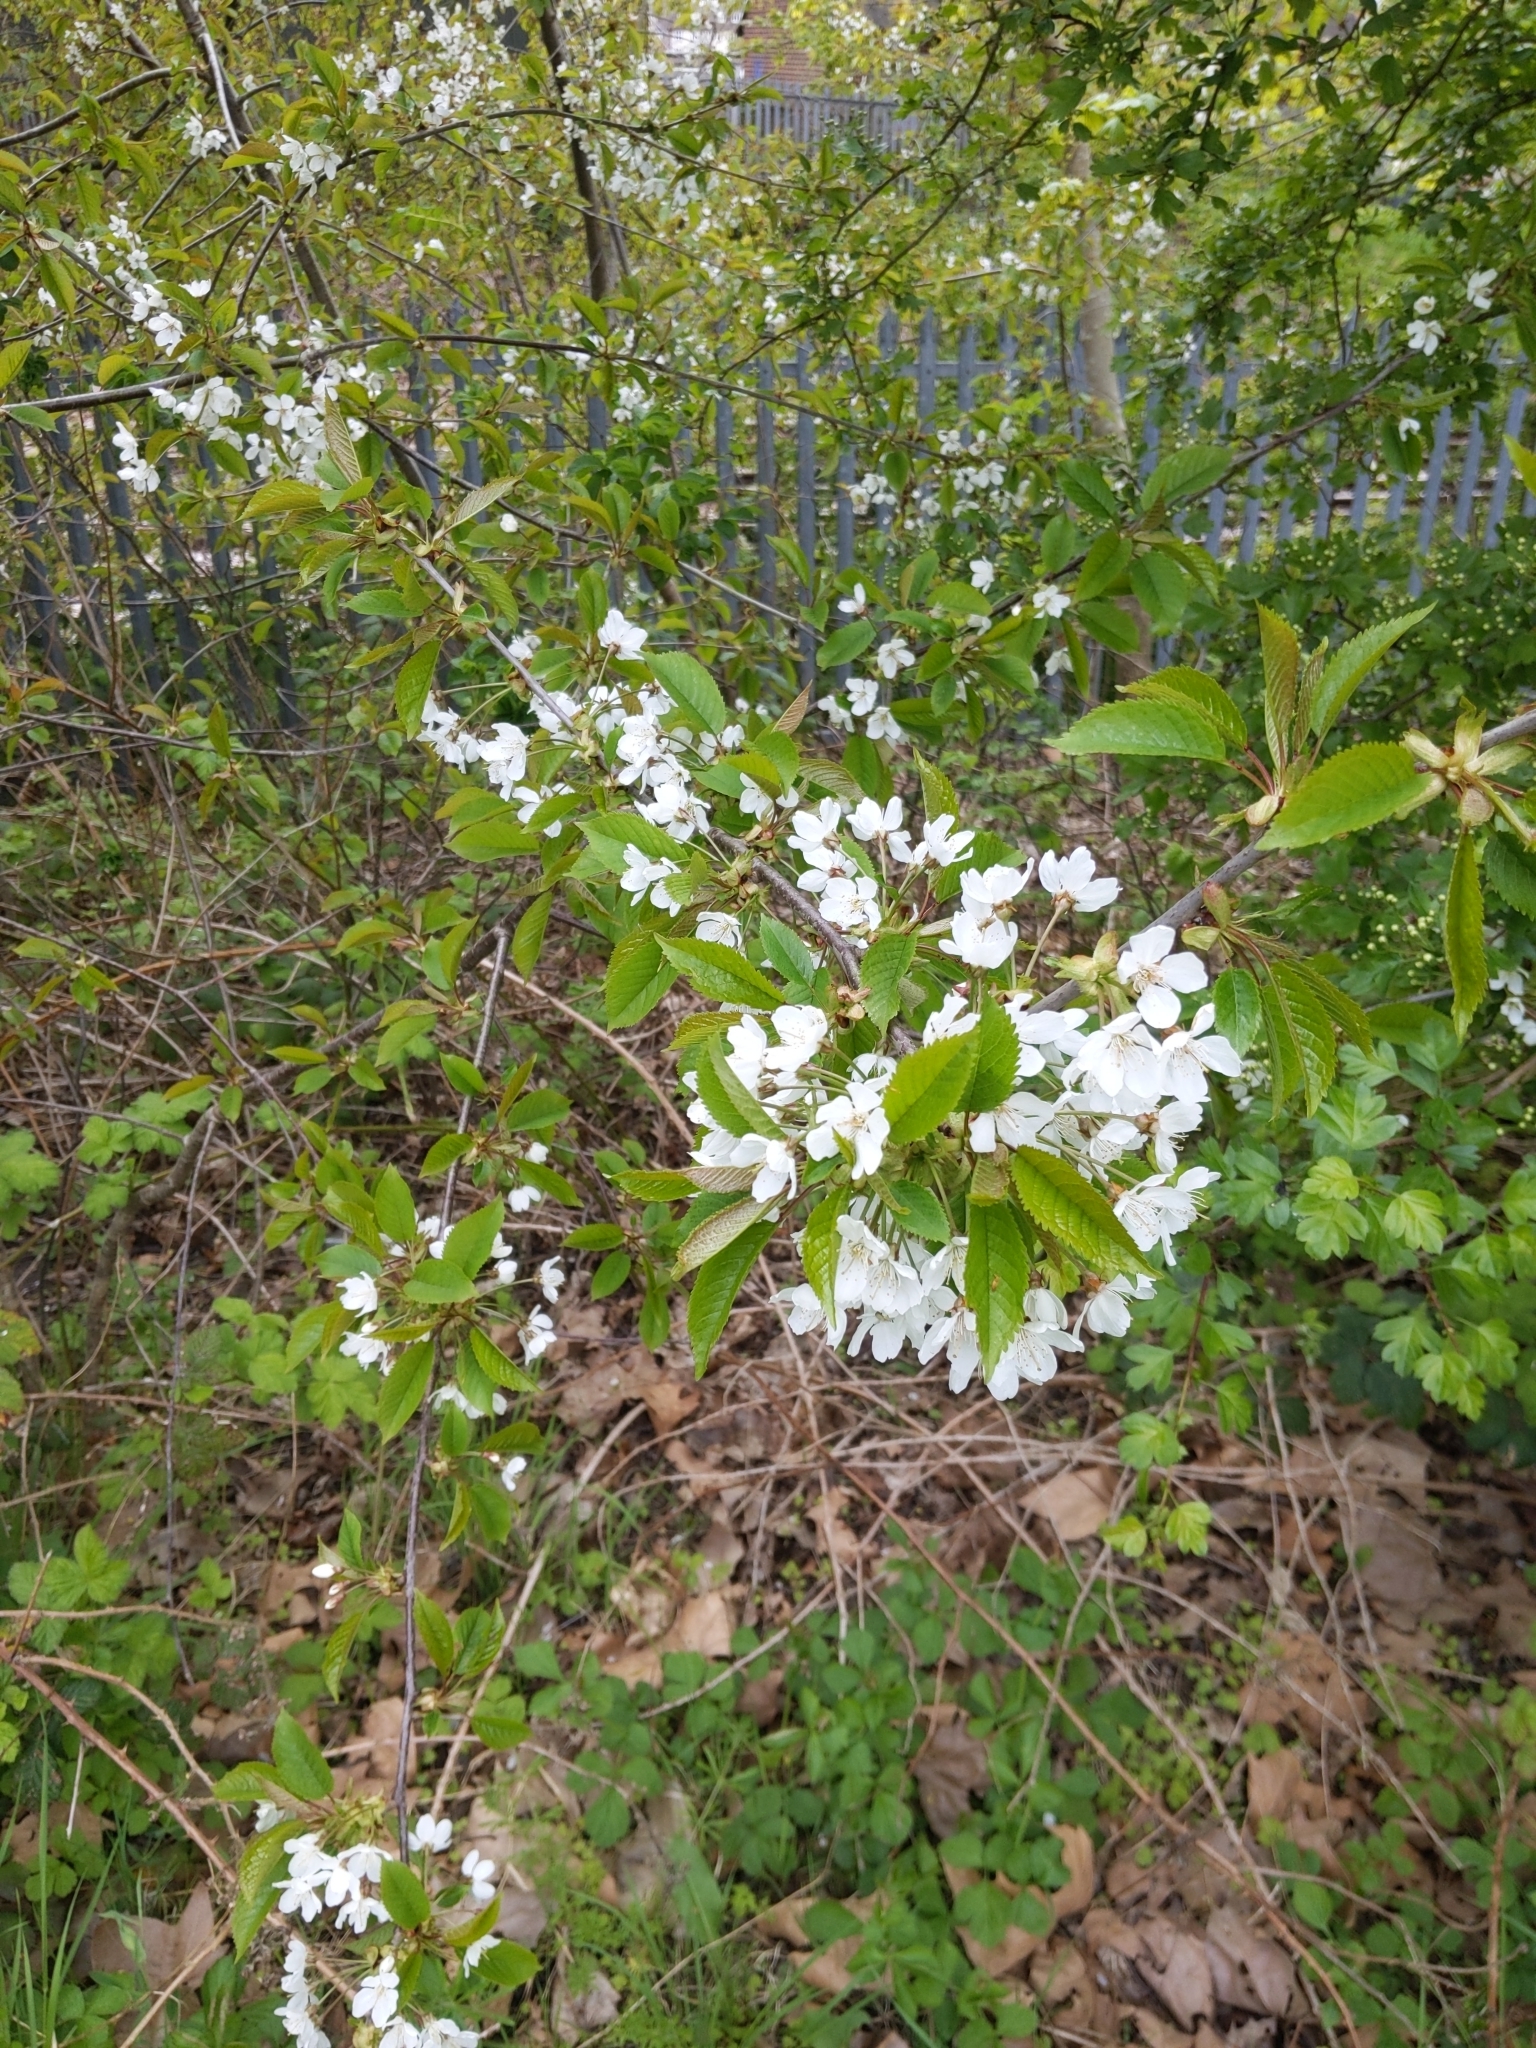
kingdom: Plantae
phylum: Tracheophyta
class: Magnoliopsida
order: Rosales
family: Rosaceae
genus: Prunus
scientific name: Prunus avium
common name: Sweet cherry
